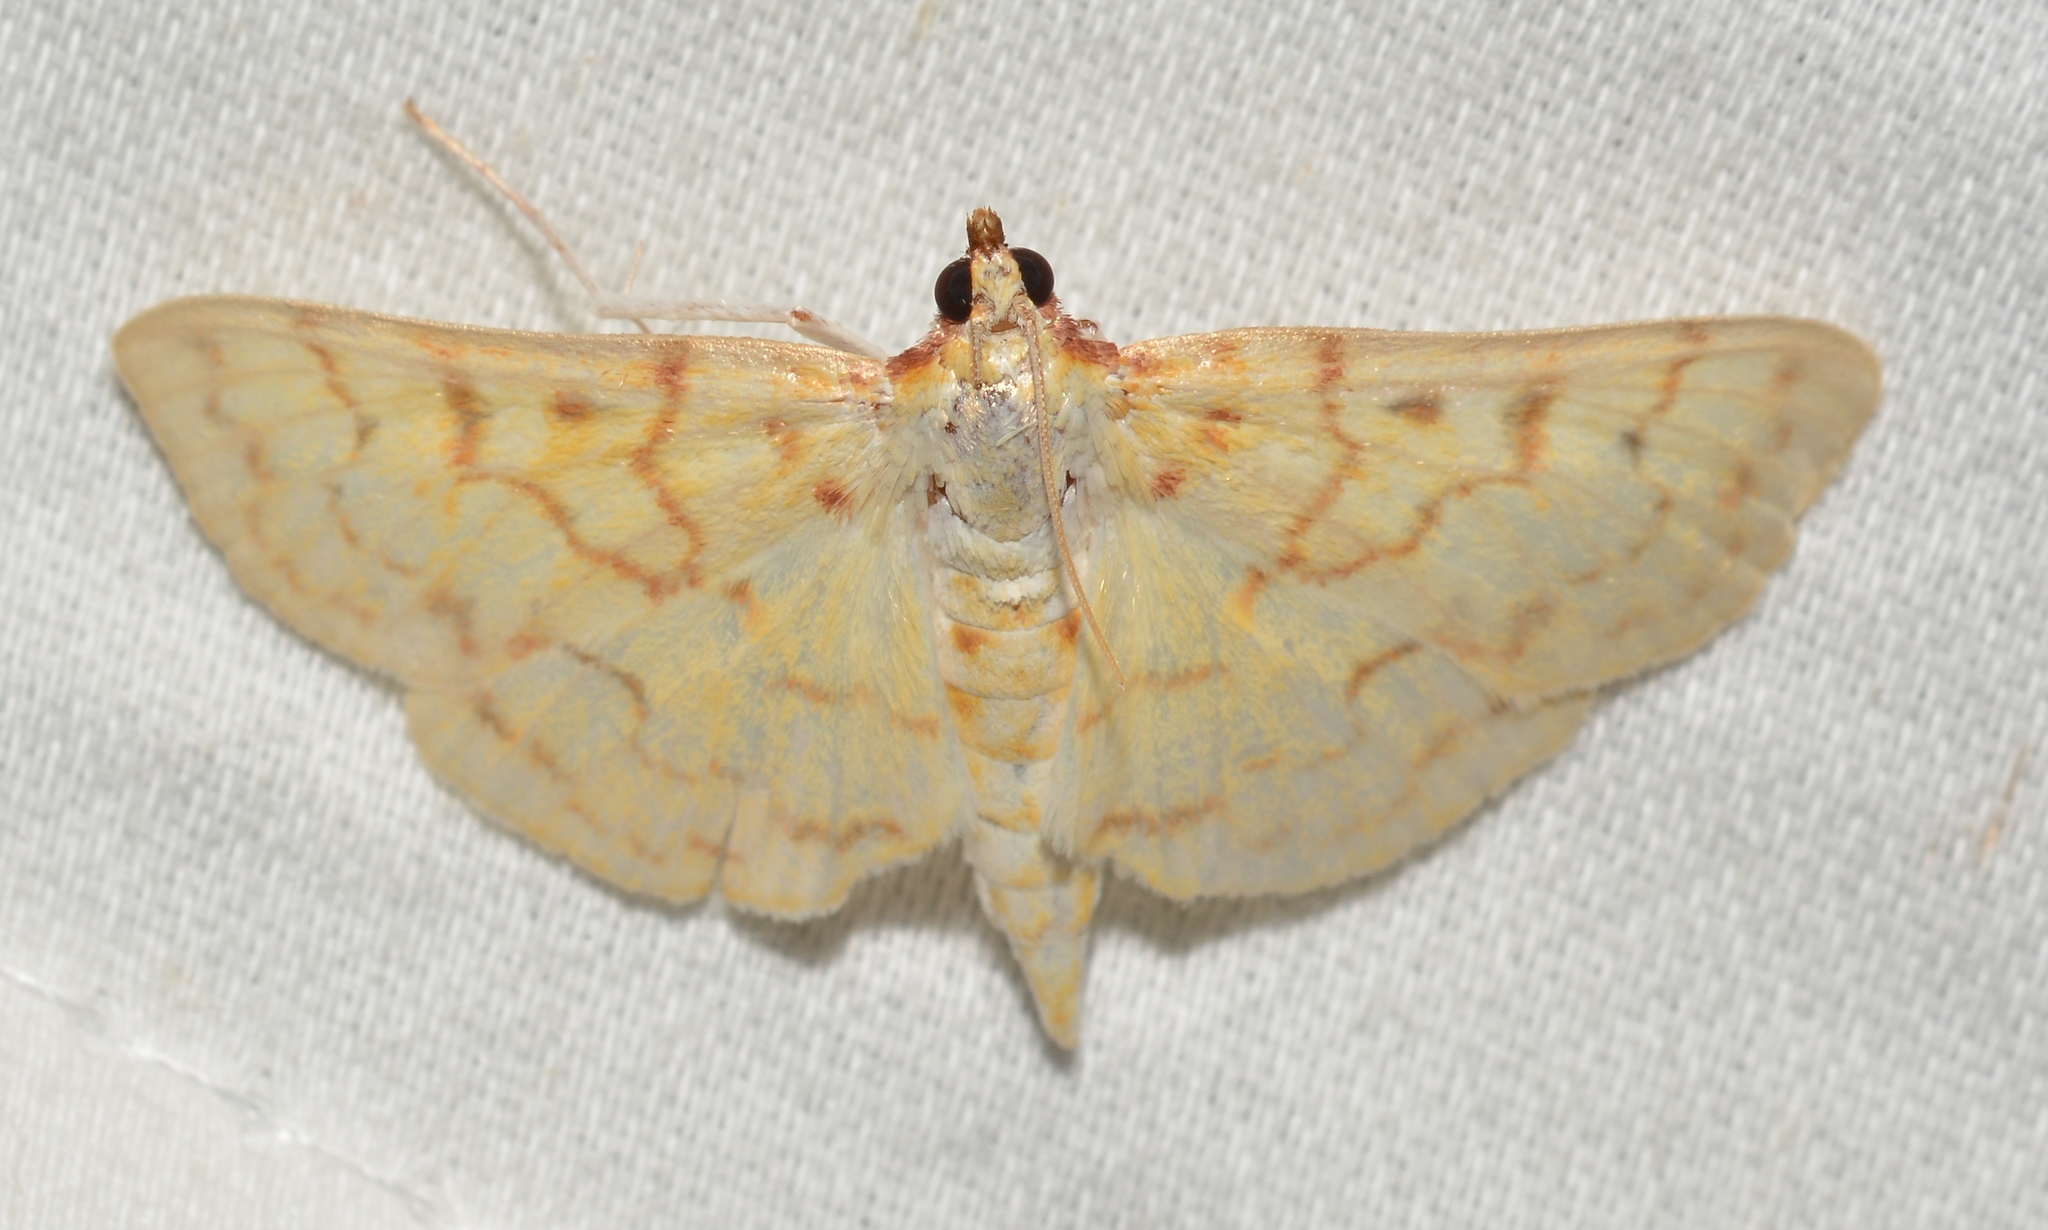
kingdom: Animalia
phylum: Arthropoda
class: Insecta
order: Lepidoptera
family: Crambidae
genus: Polygrammodes
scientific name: Polygrammodes flavidalis
